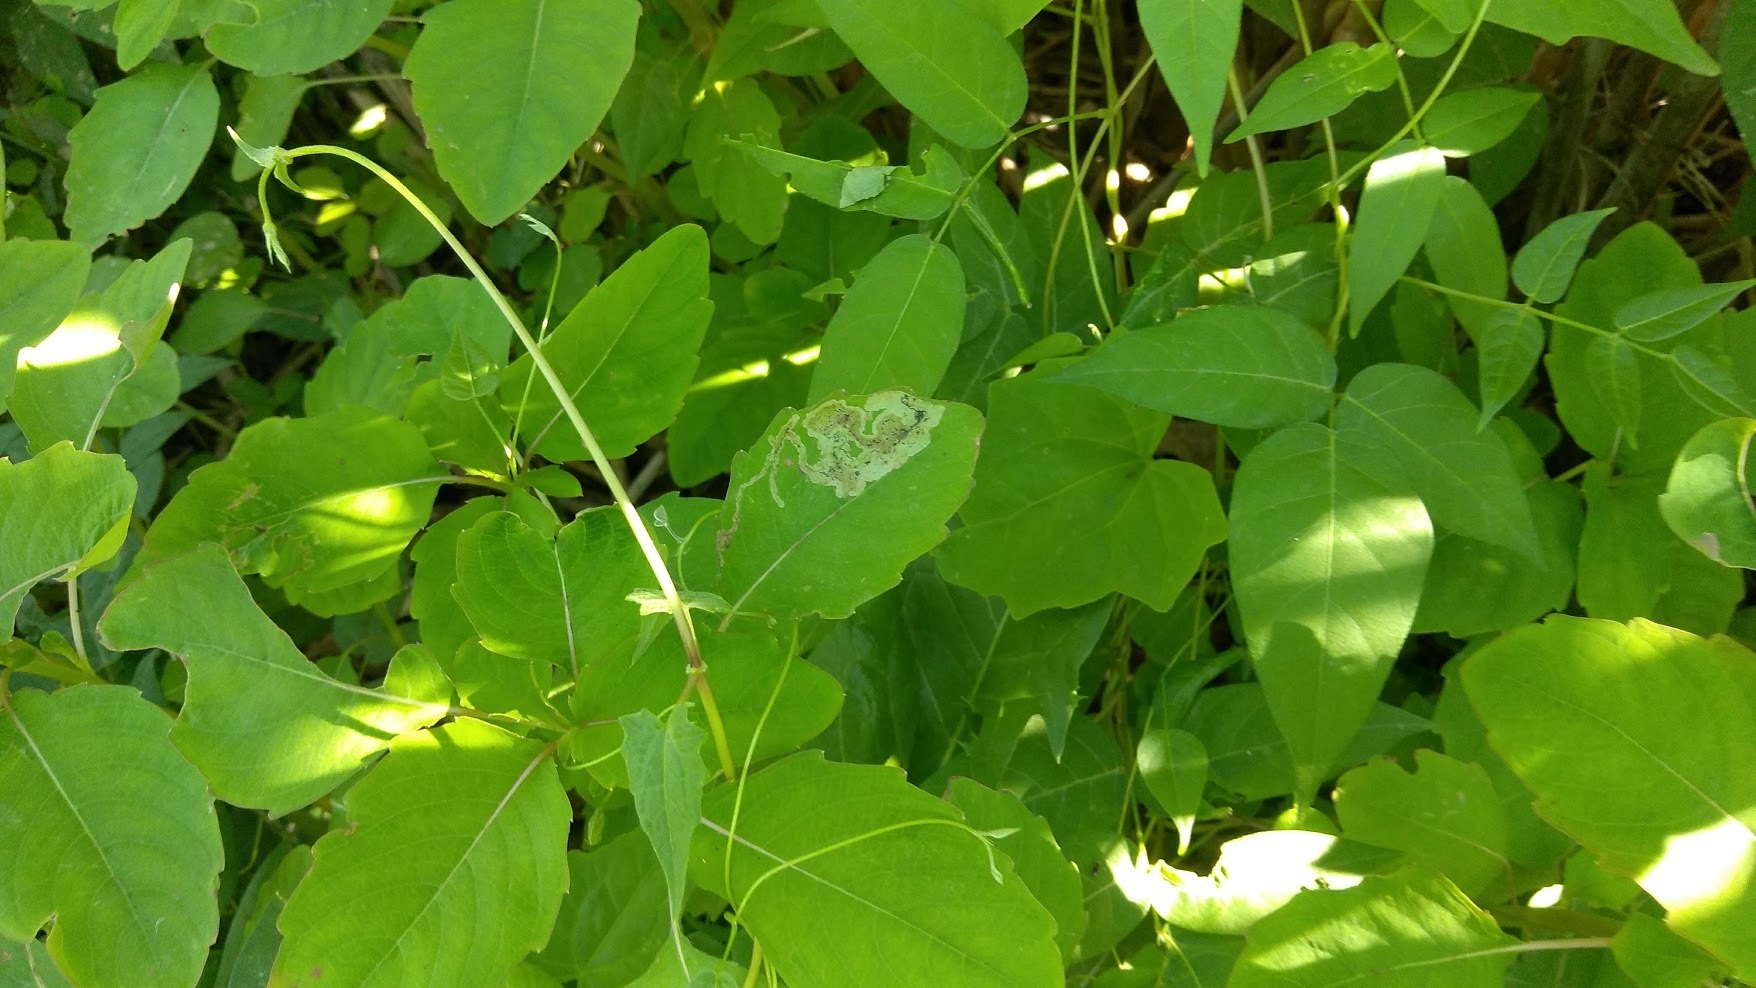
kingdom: Animalia
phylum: Arthropoda
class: Insecta
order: Diptera
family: Agromyzidae
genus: Phytoliriomyza
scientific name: Phytoliriomyza melampyga
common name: Jewelweed leaf-miner fly
